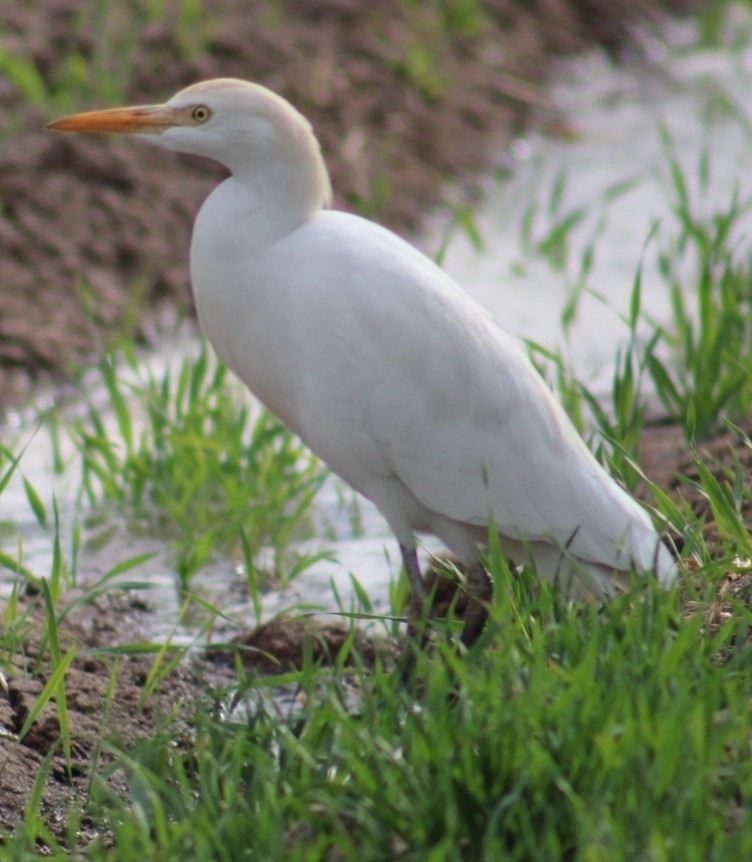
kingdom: Animalia
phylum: Chordata
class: Aves
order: Pelecaniformes
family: Ardeidae
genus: Bubulcus
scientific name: Bubulcus ibis
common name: Cattle egret
